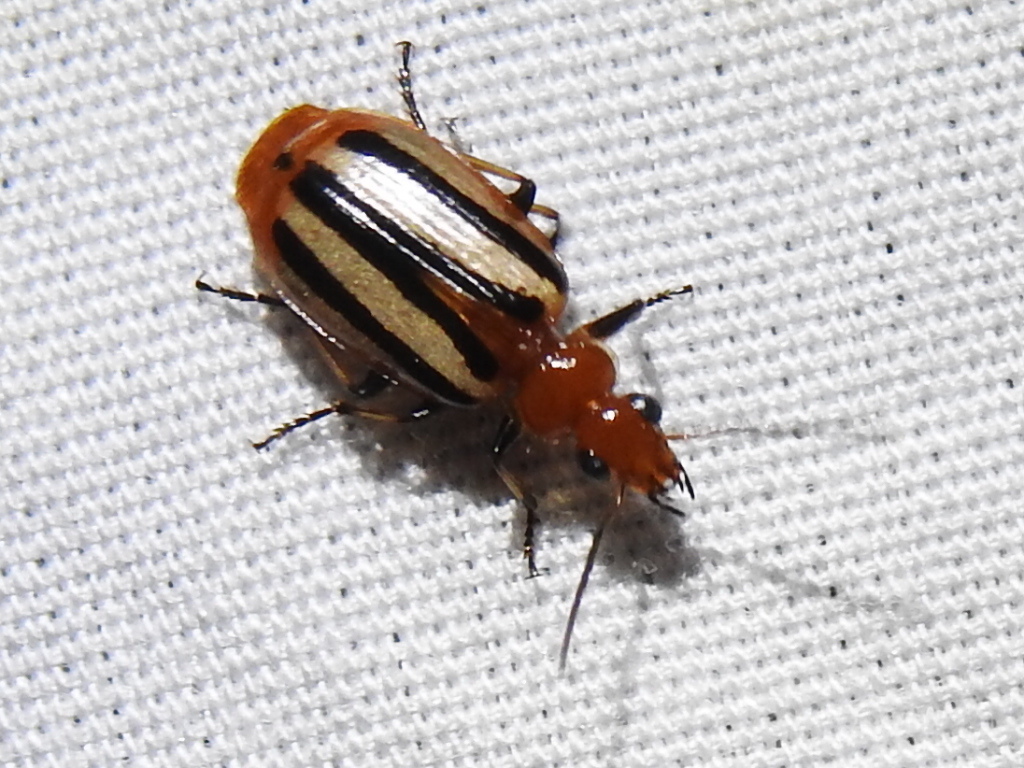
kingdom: Animalia
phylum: Arthropoda
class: Insecta
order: Coleoptera
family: Carabidae
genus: Lebia
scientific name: Lebia vittata
